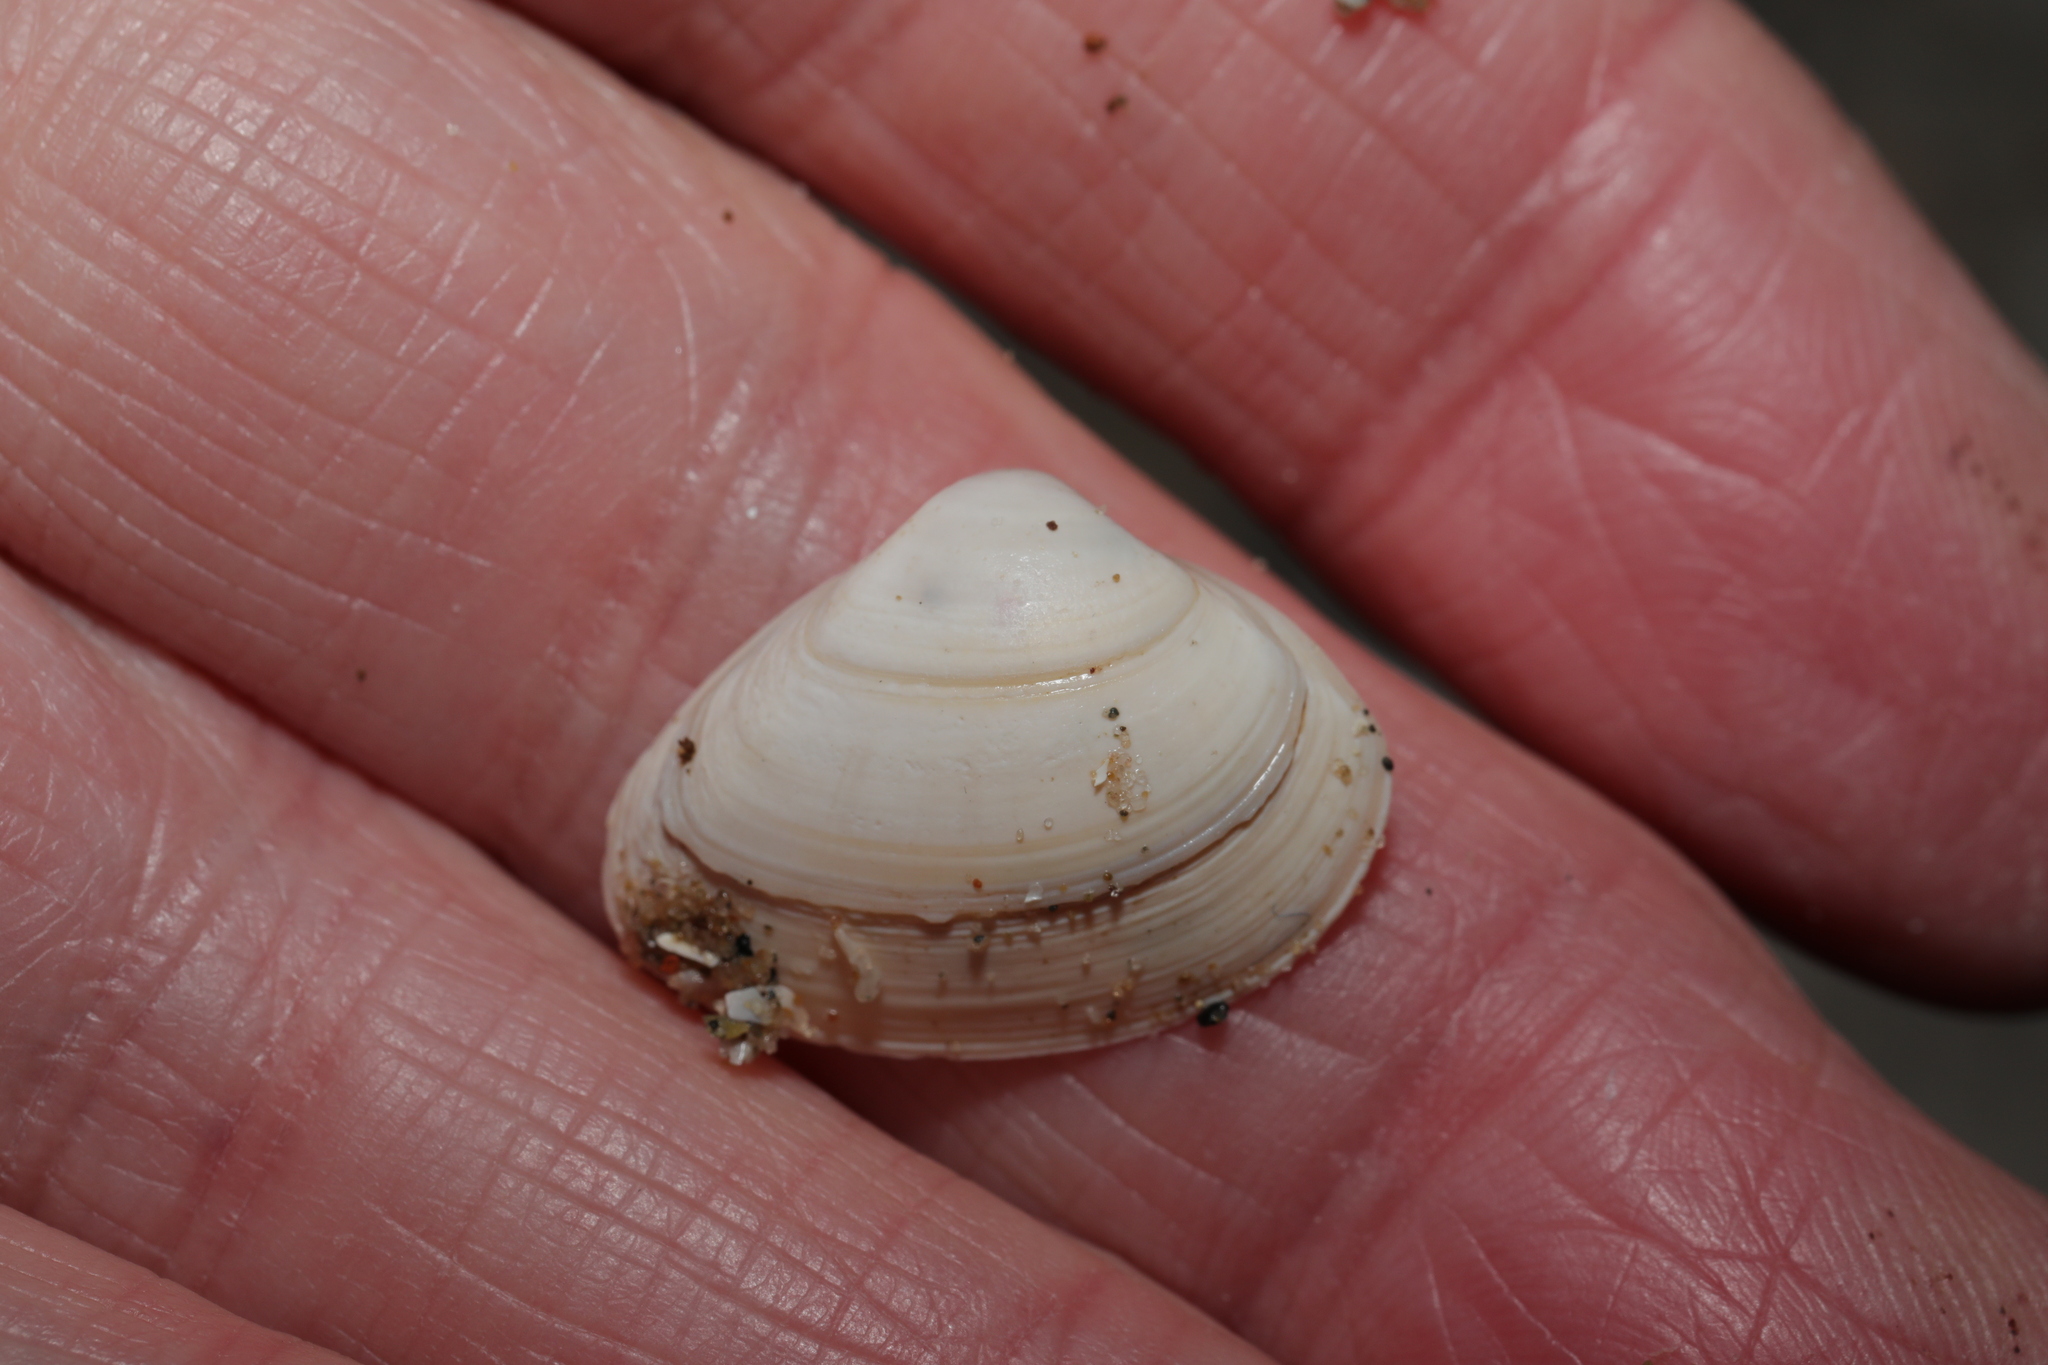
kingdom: Animalia
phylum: Mollusca
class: Bivalvia
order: Venerida
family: Mactridae
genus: Spisula
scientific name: Spisula subtruncata
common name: Cut trough shell
